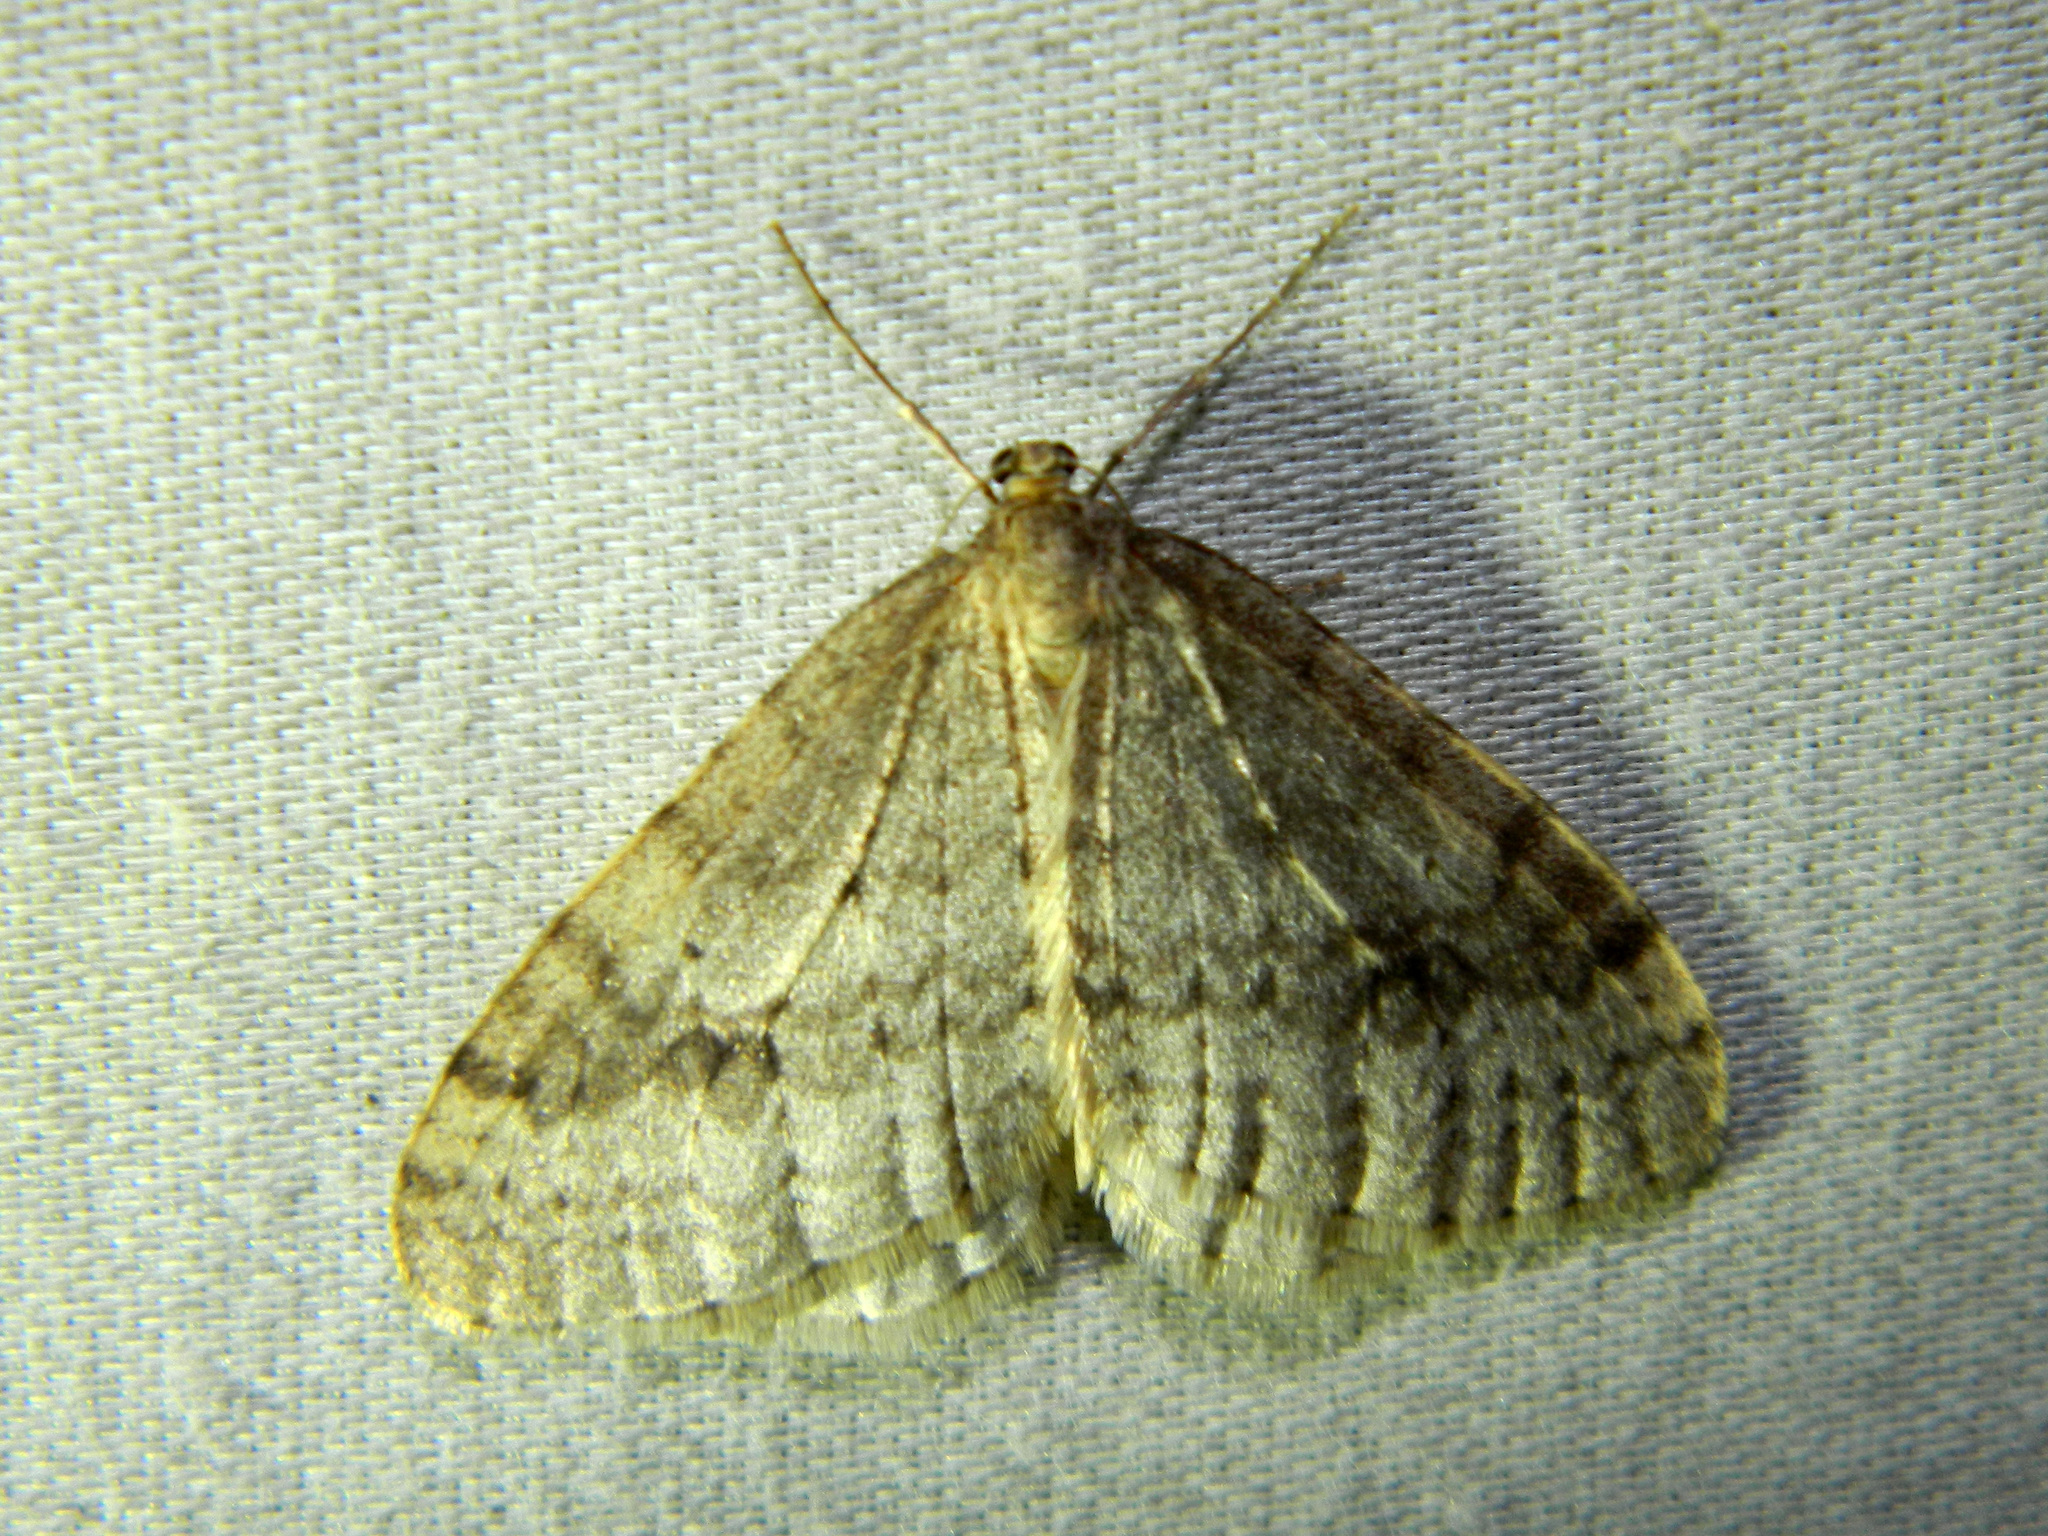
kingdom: Animalia
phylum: Arthropoda
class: Insecta
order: Lepidoptera
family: Geometridae
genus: Operophtera
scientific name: Operophtera bruceata
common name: Bruce spanworm
